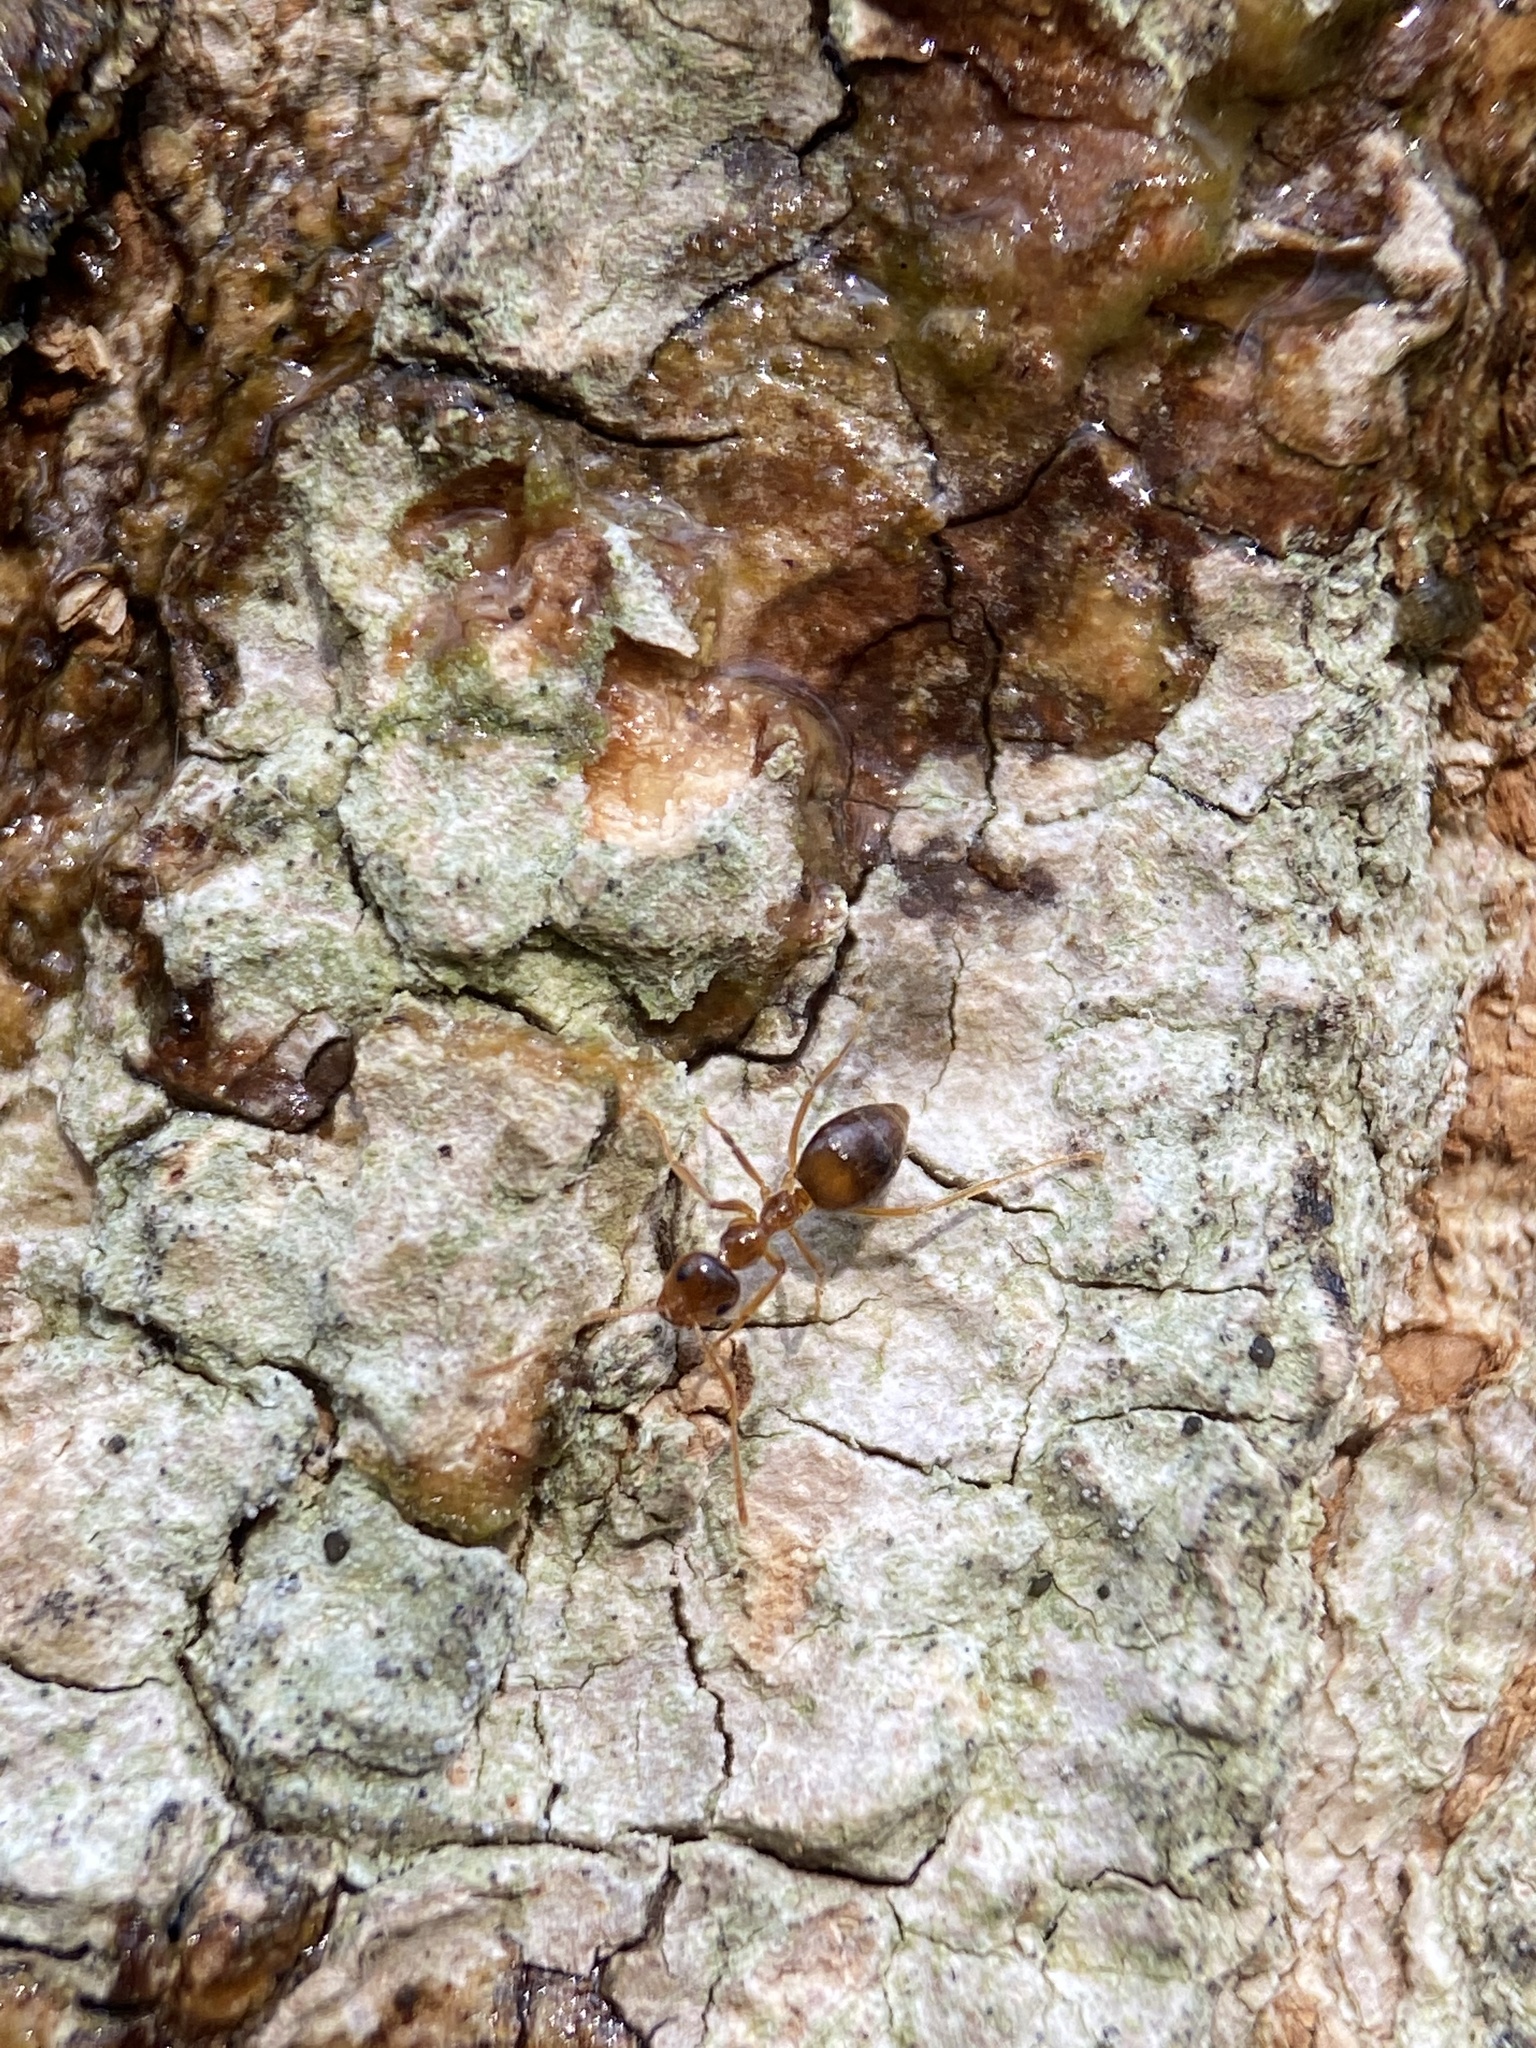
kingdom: Animalia
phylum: Arthropoda
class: Insecta
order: Hymenoptera
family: Formicidae
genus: Prenolepis
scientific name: Prenolepis imparis
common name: Small honey ant
